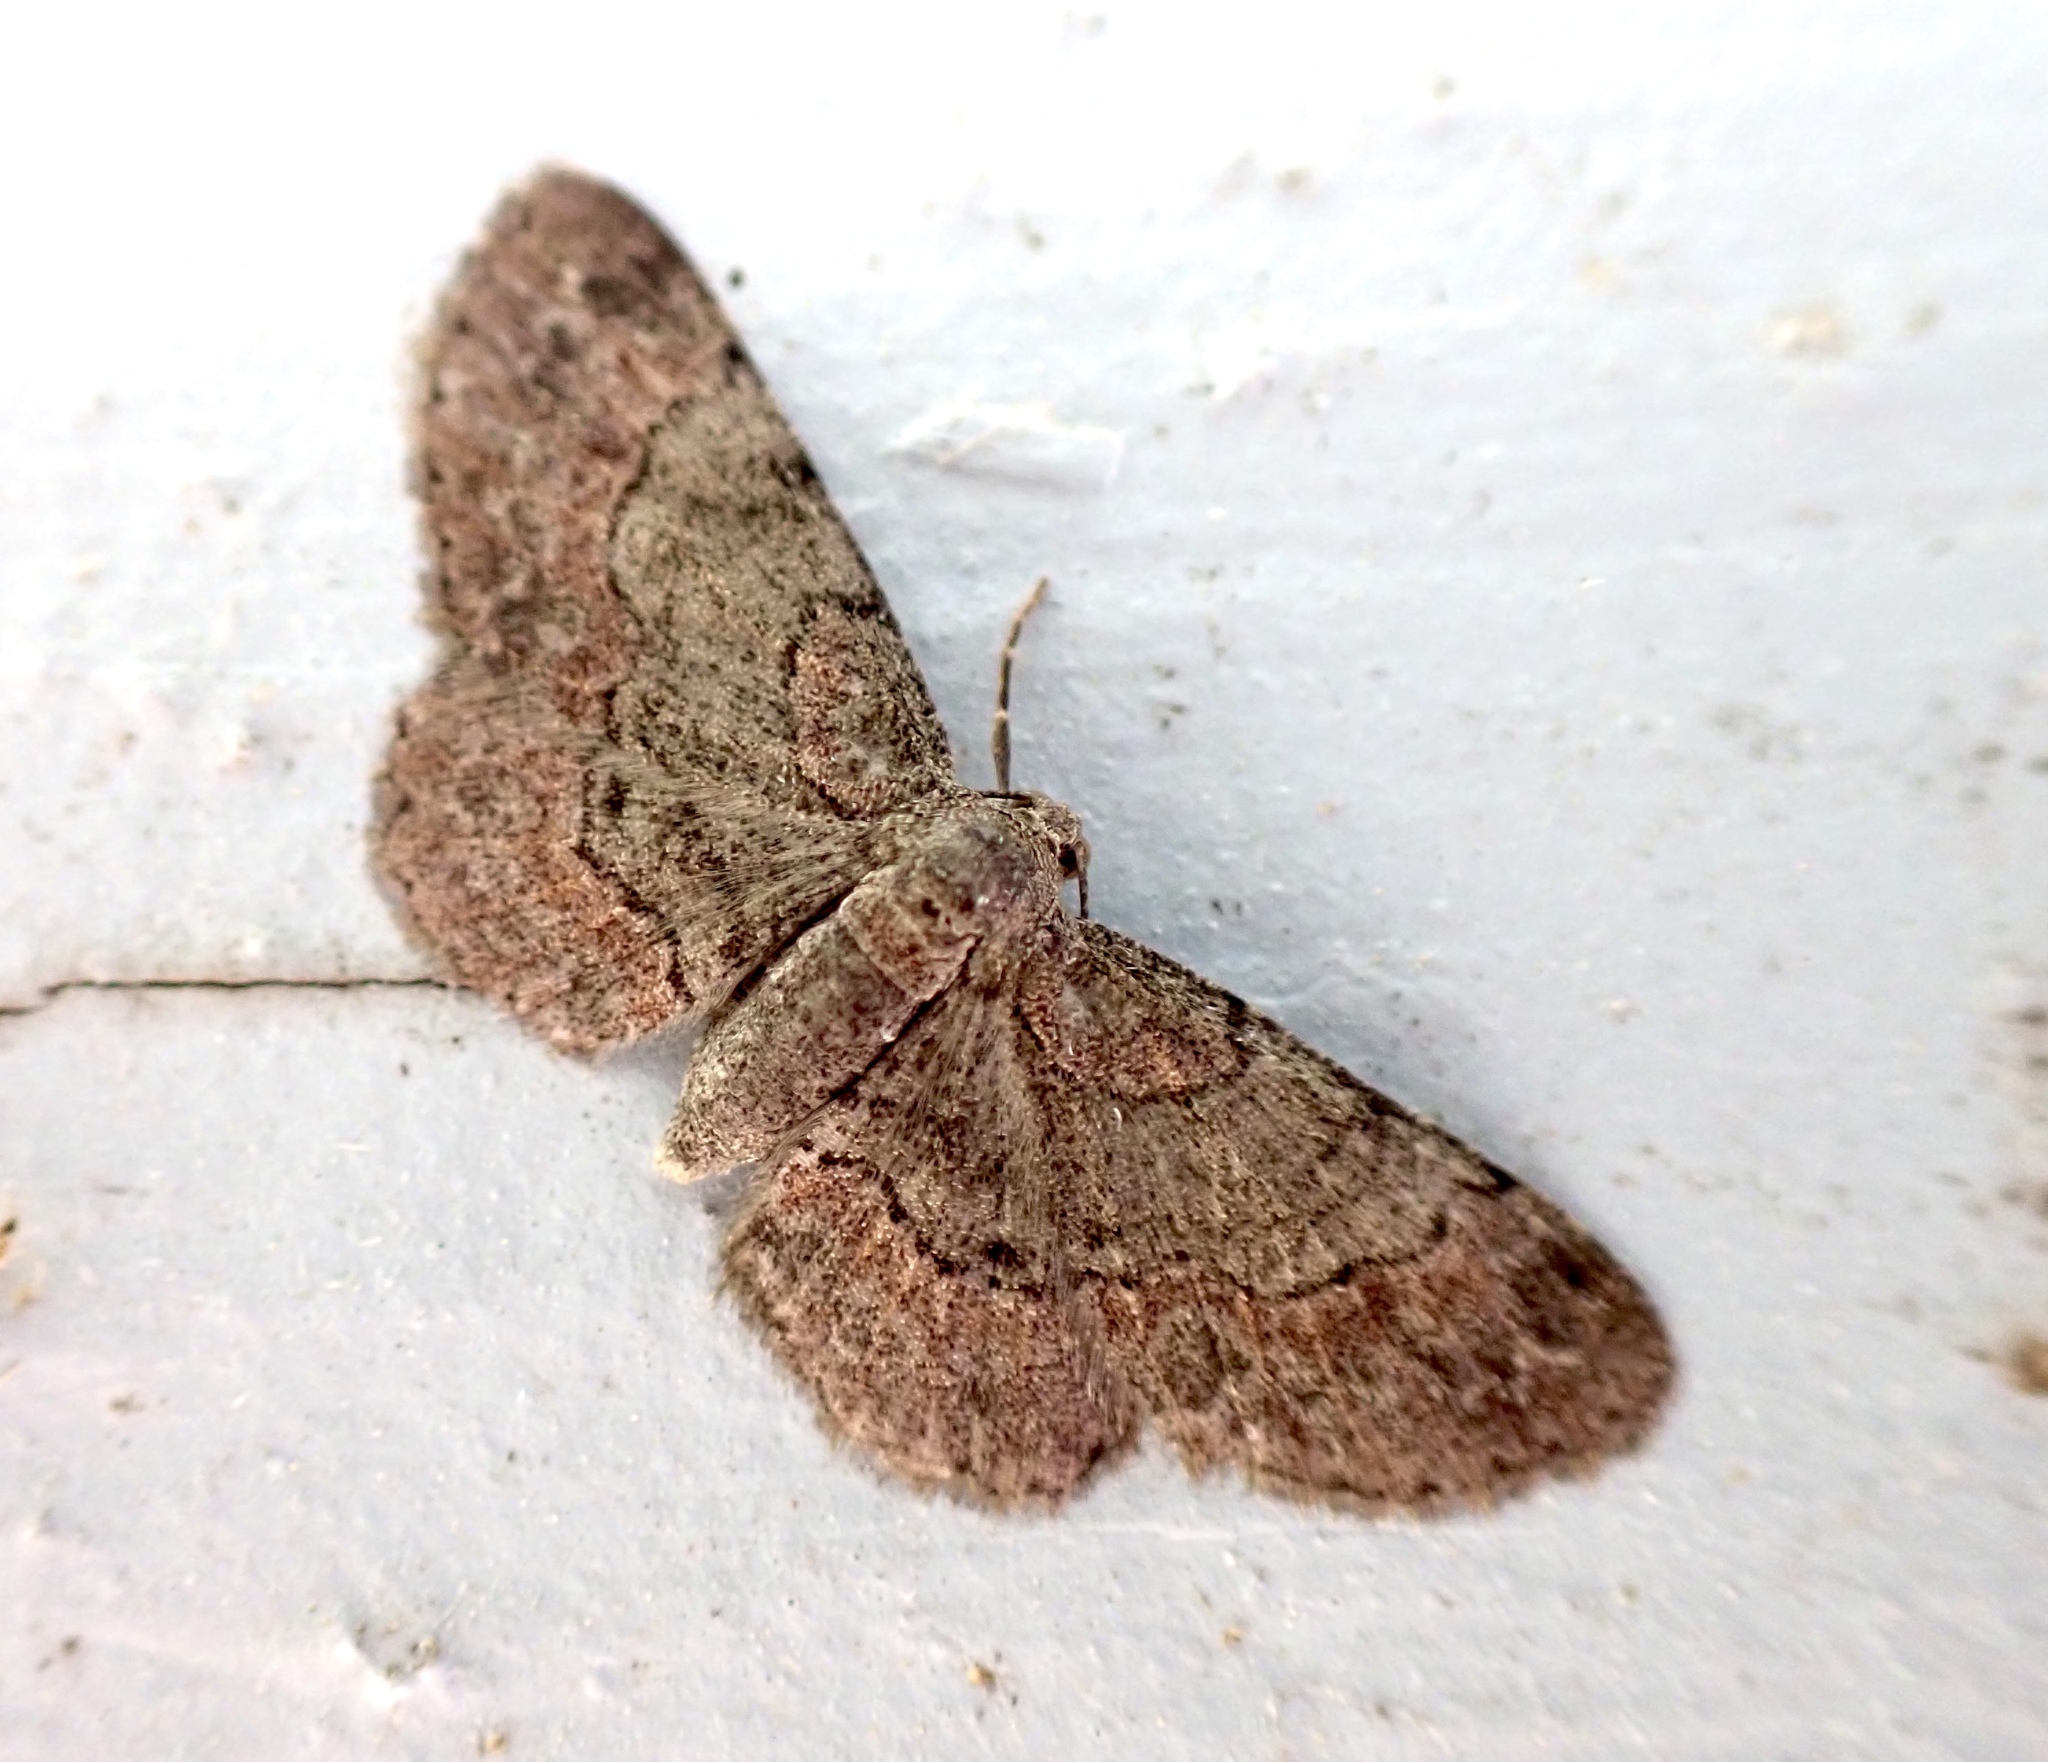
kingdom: Animalia
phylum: Arthropoda
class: Insecta
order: Lepidoptera
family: Geometridae
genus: Glenoides
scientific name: Glenoides texanaria
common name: Texas gray
